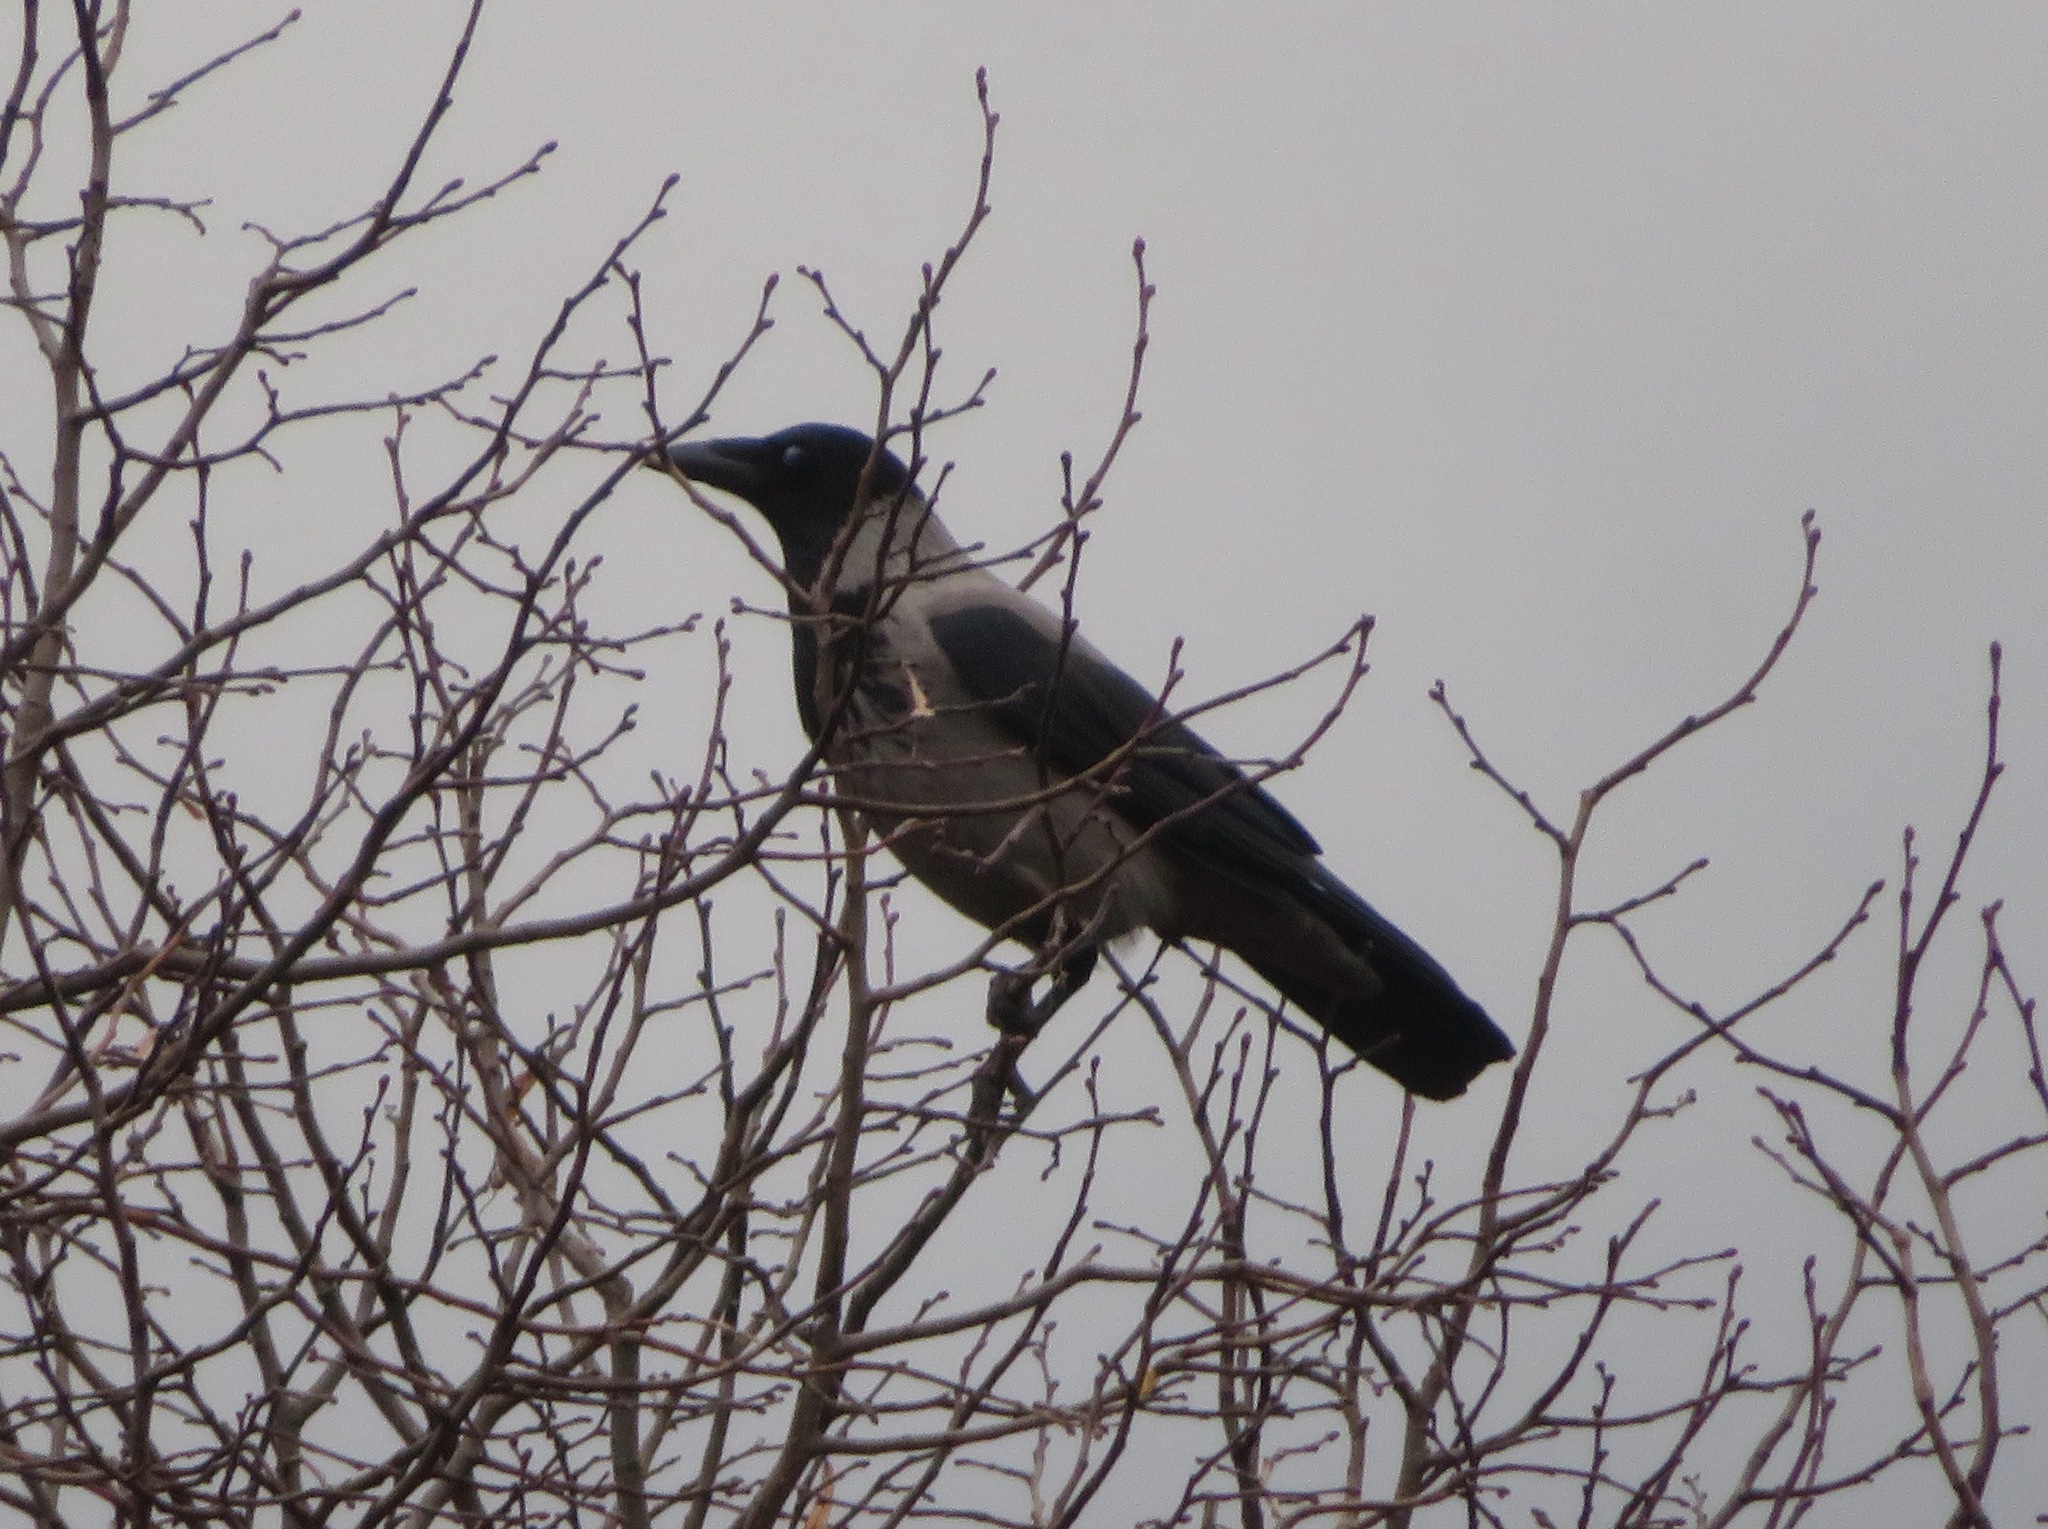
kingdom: Animalia
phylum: Chordata
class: Aves
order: Passeriformes
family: Corvidae
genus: Corvus
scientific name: Corvus cornix
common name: Hooded crow
